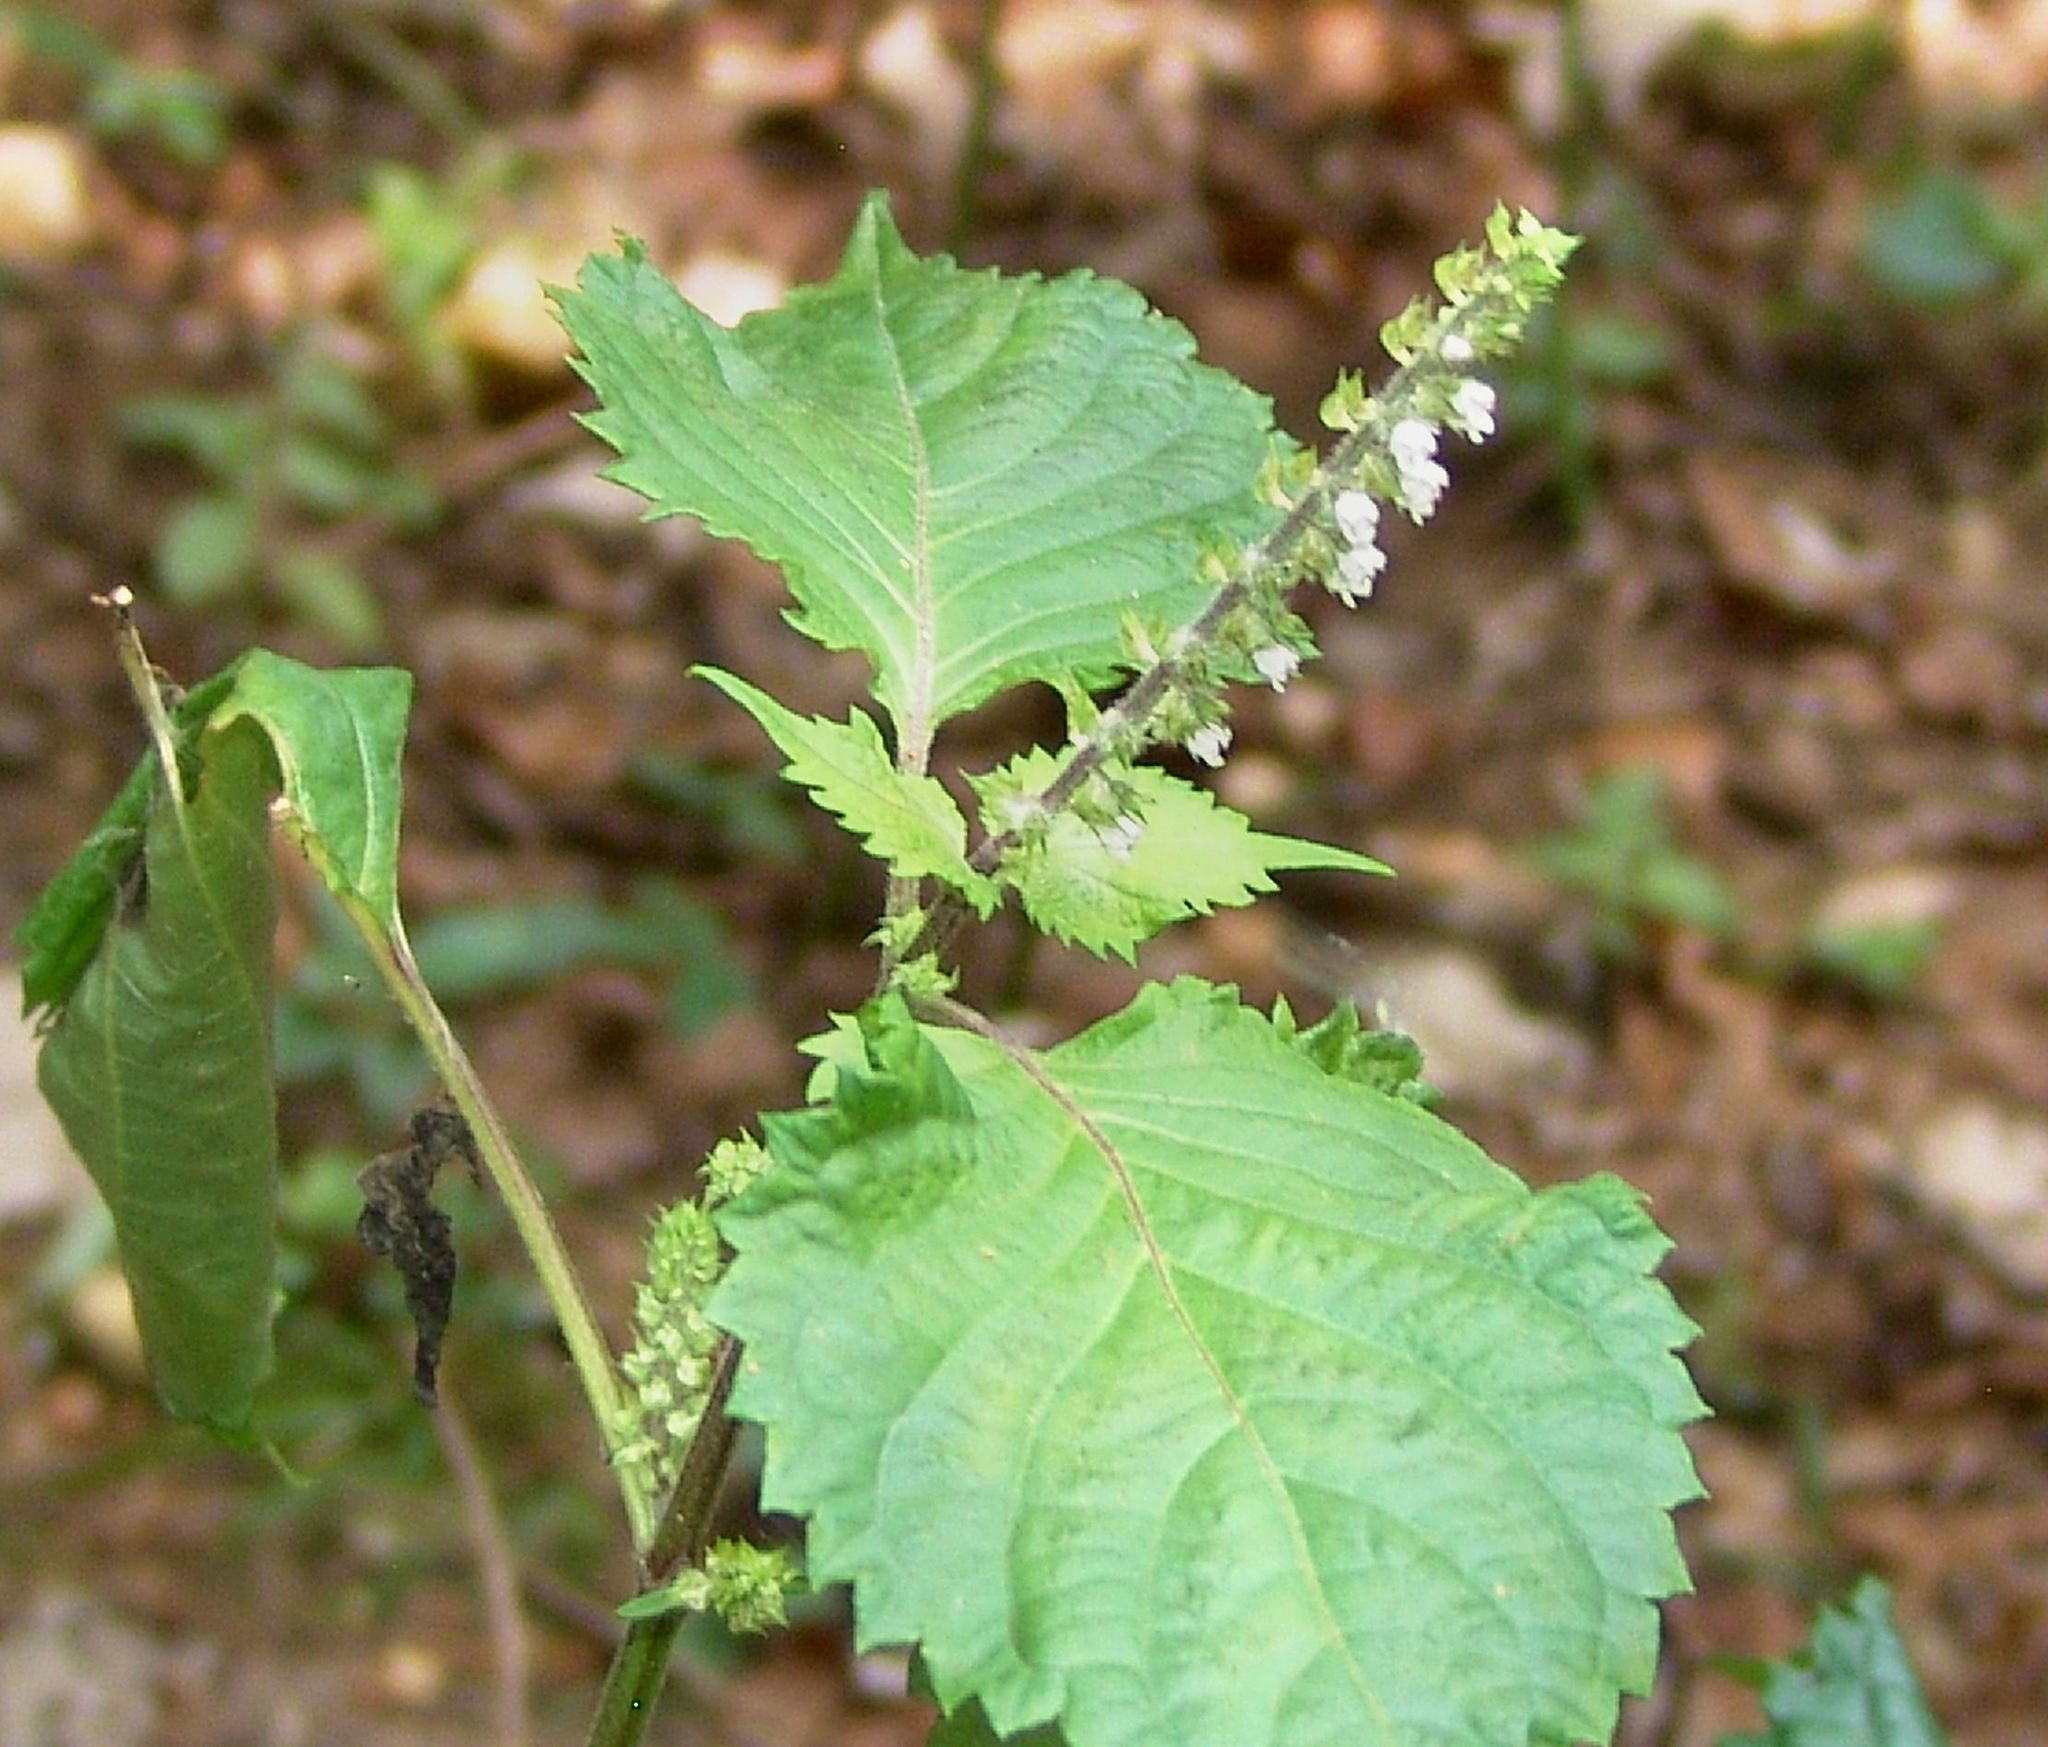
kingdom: Plantae
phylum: Tracheophyta
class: Magnoliopsida
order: Lamiales
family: Lamiaceae
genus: Perilla
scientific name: Perilla frutescens
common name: Perilla
